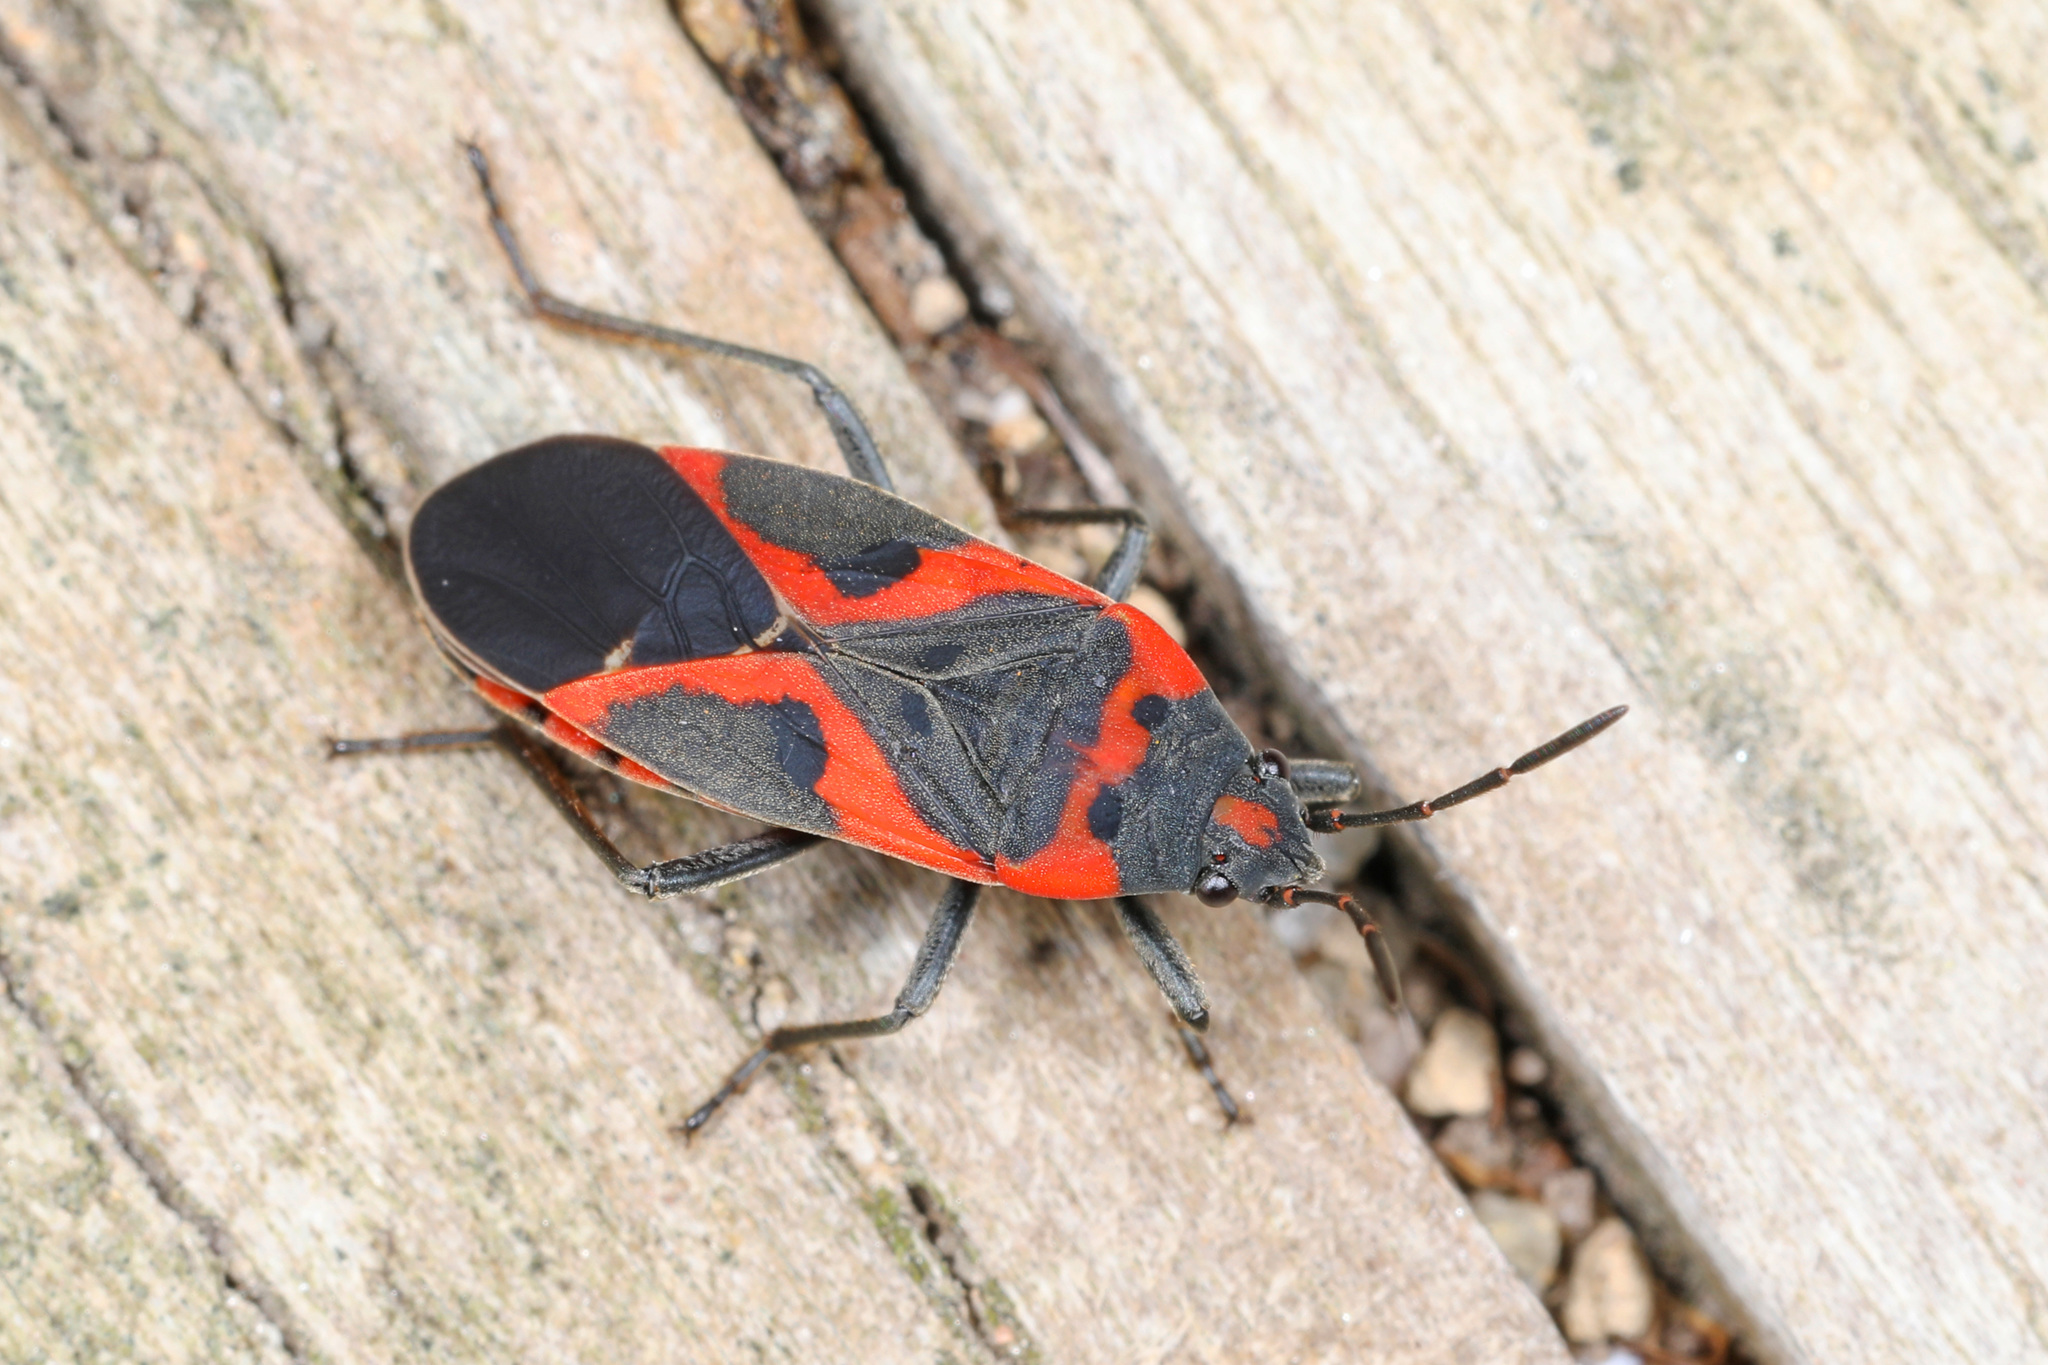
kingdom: Animalia
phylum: Arthropoda
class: Insecta
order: Hemiptera
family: Lygaeidae
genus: Lygaeus
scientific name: Lygaeus kalmii
